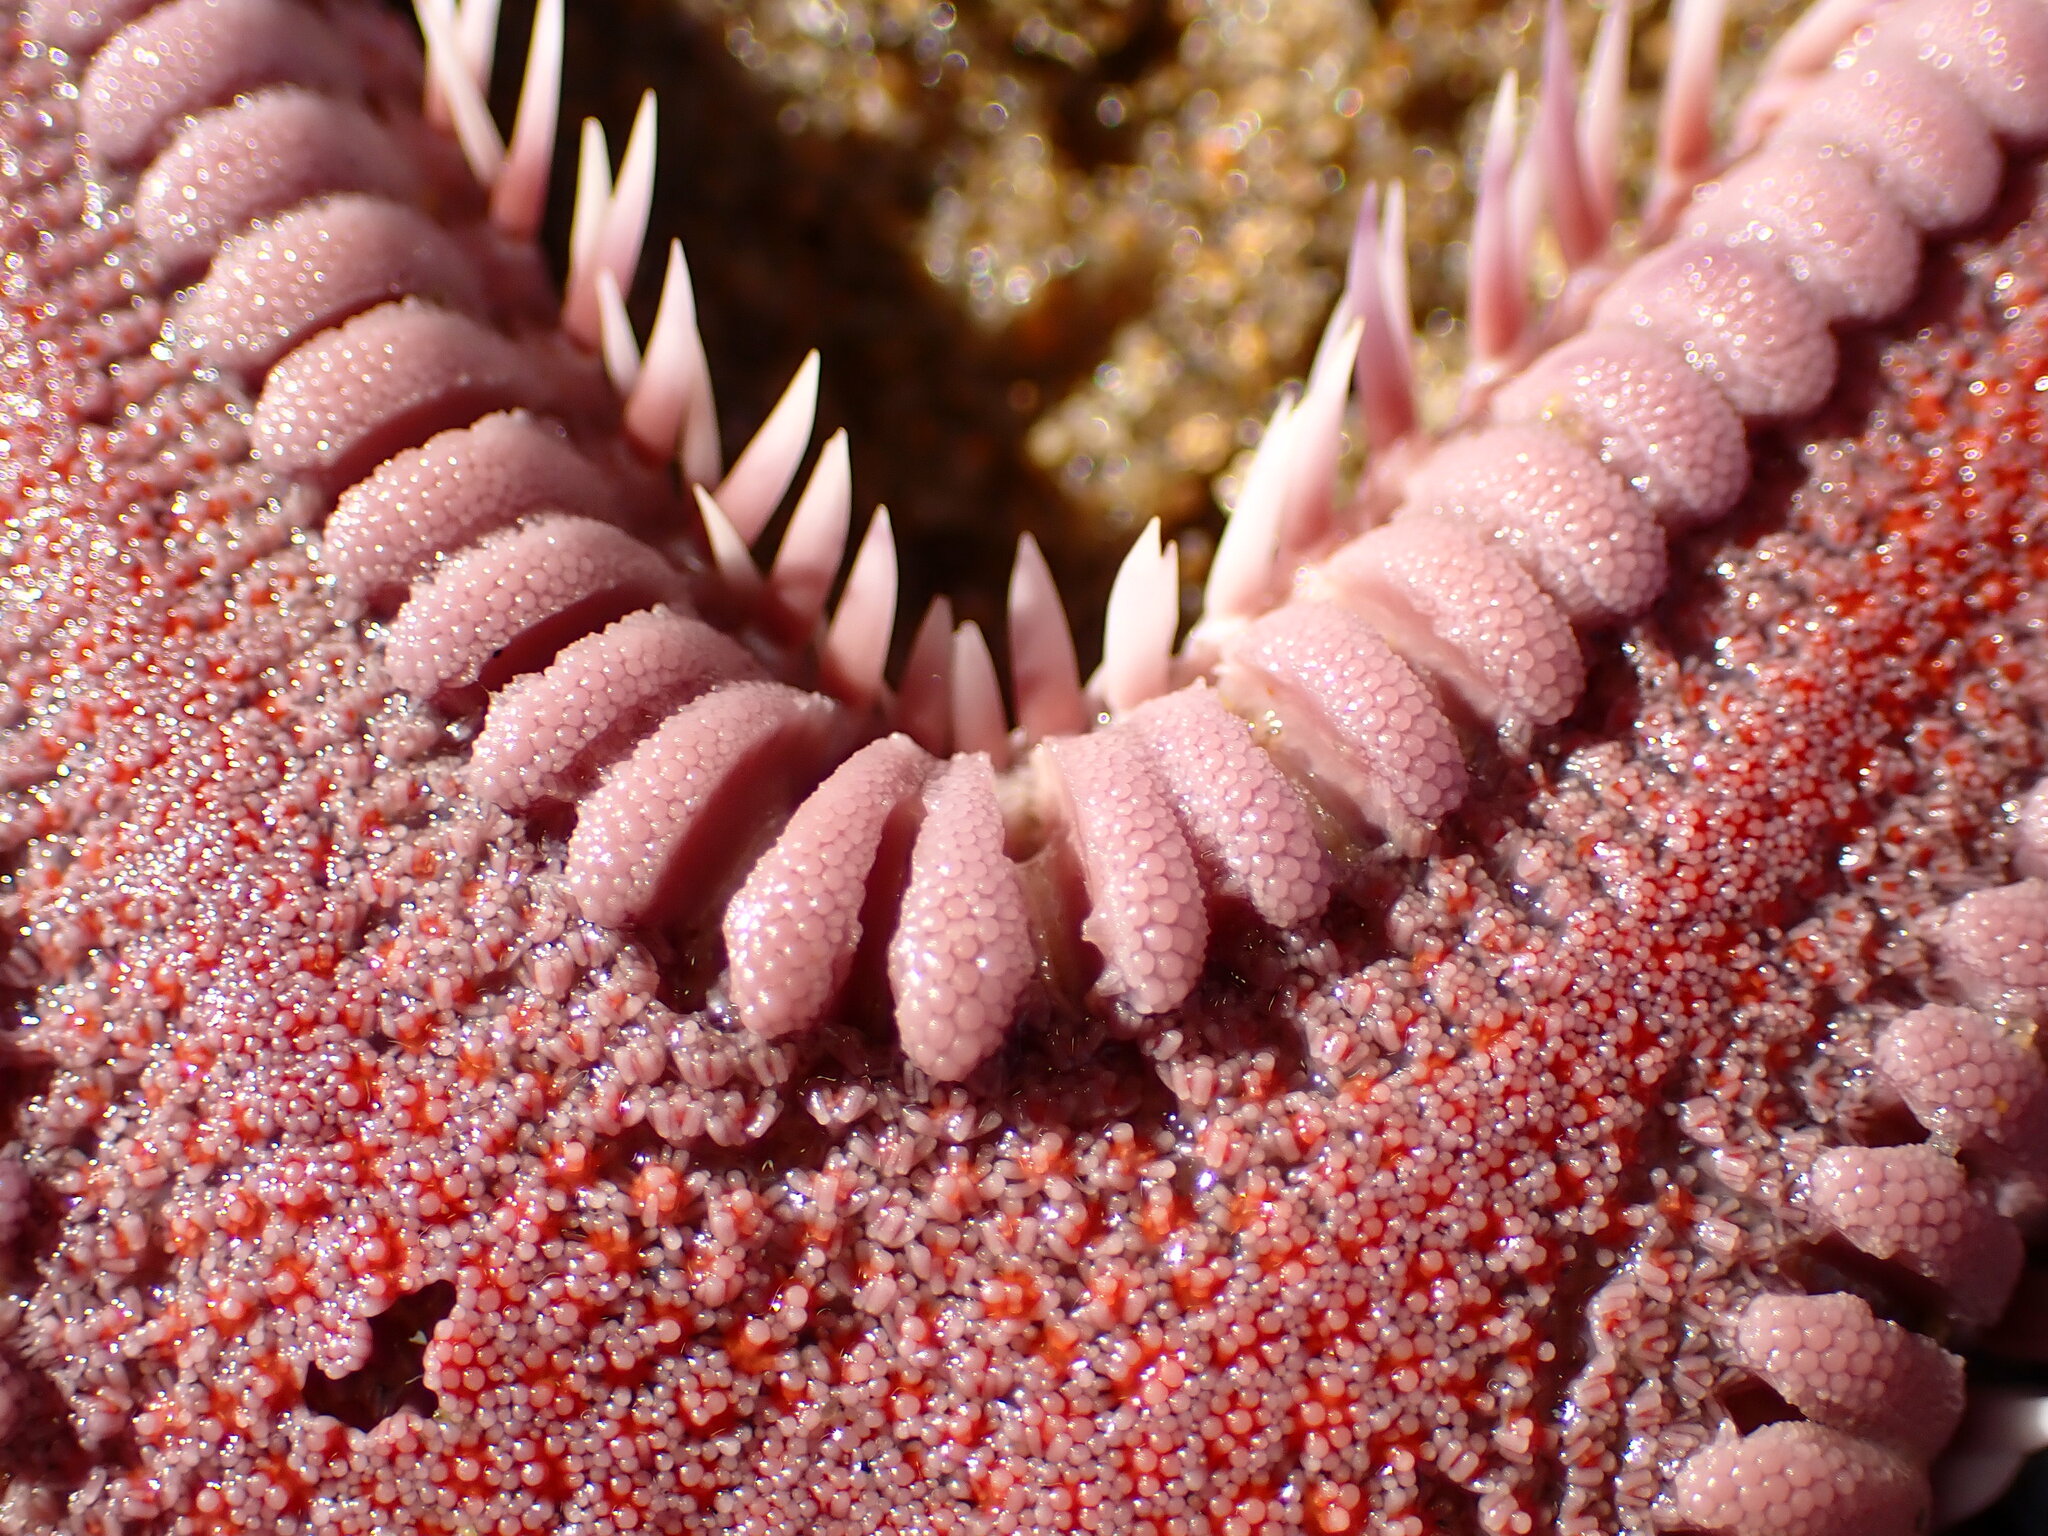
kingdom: Animalia
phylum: Echinodermata
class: Asteroidea
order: Paxillosida
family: Astropectinidae
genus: Astropecten
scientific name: Astropecten verrilli de
